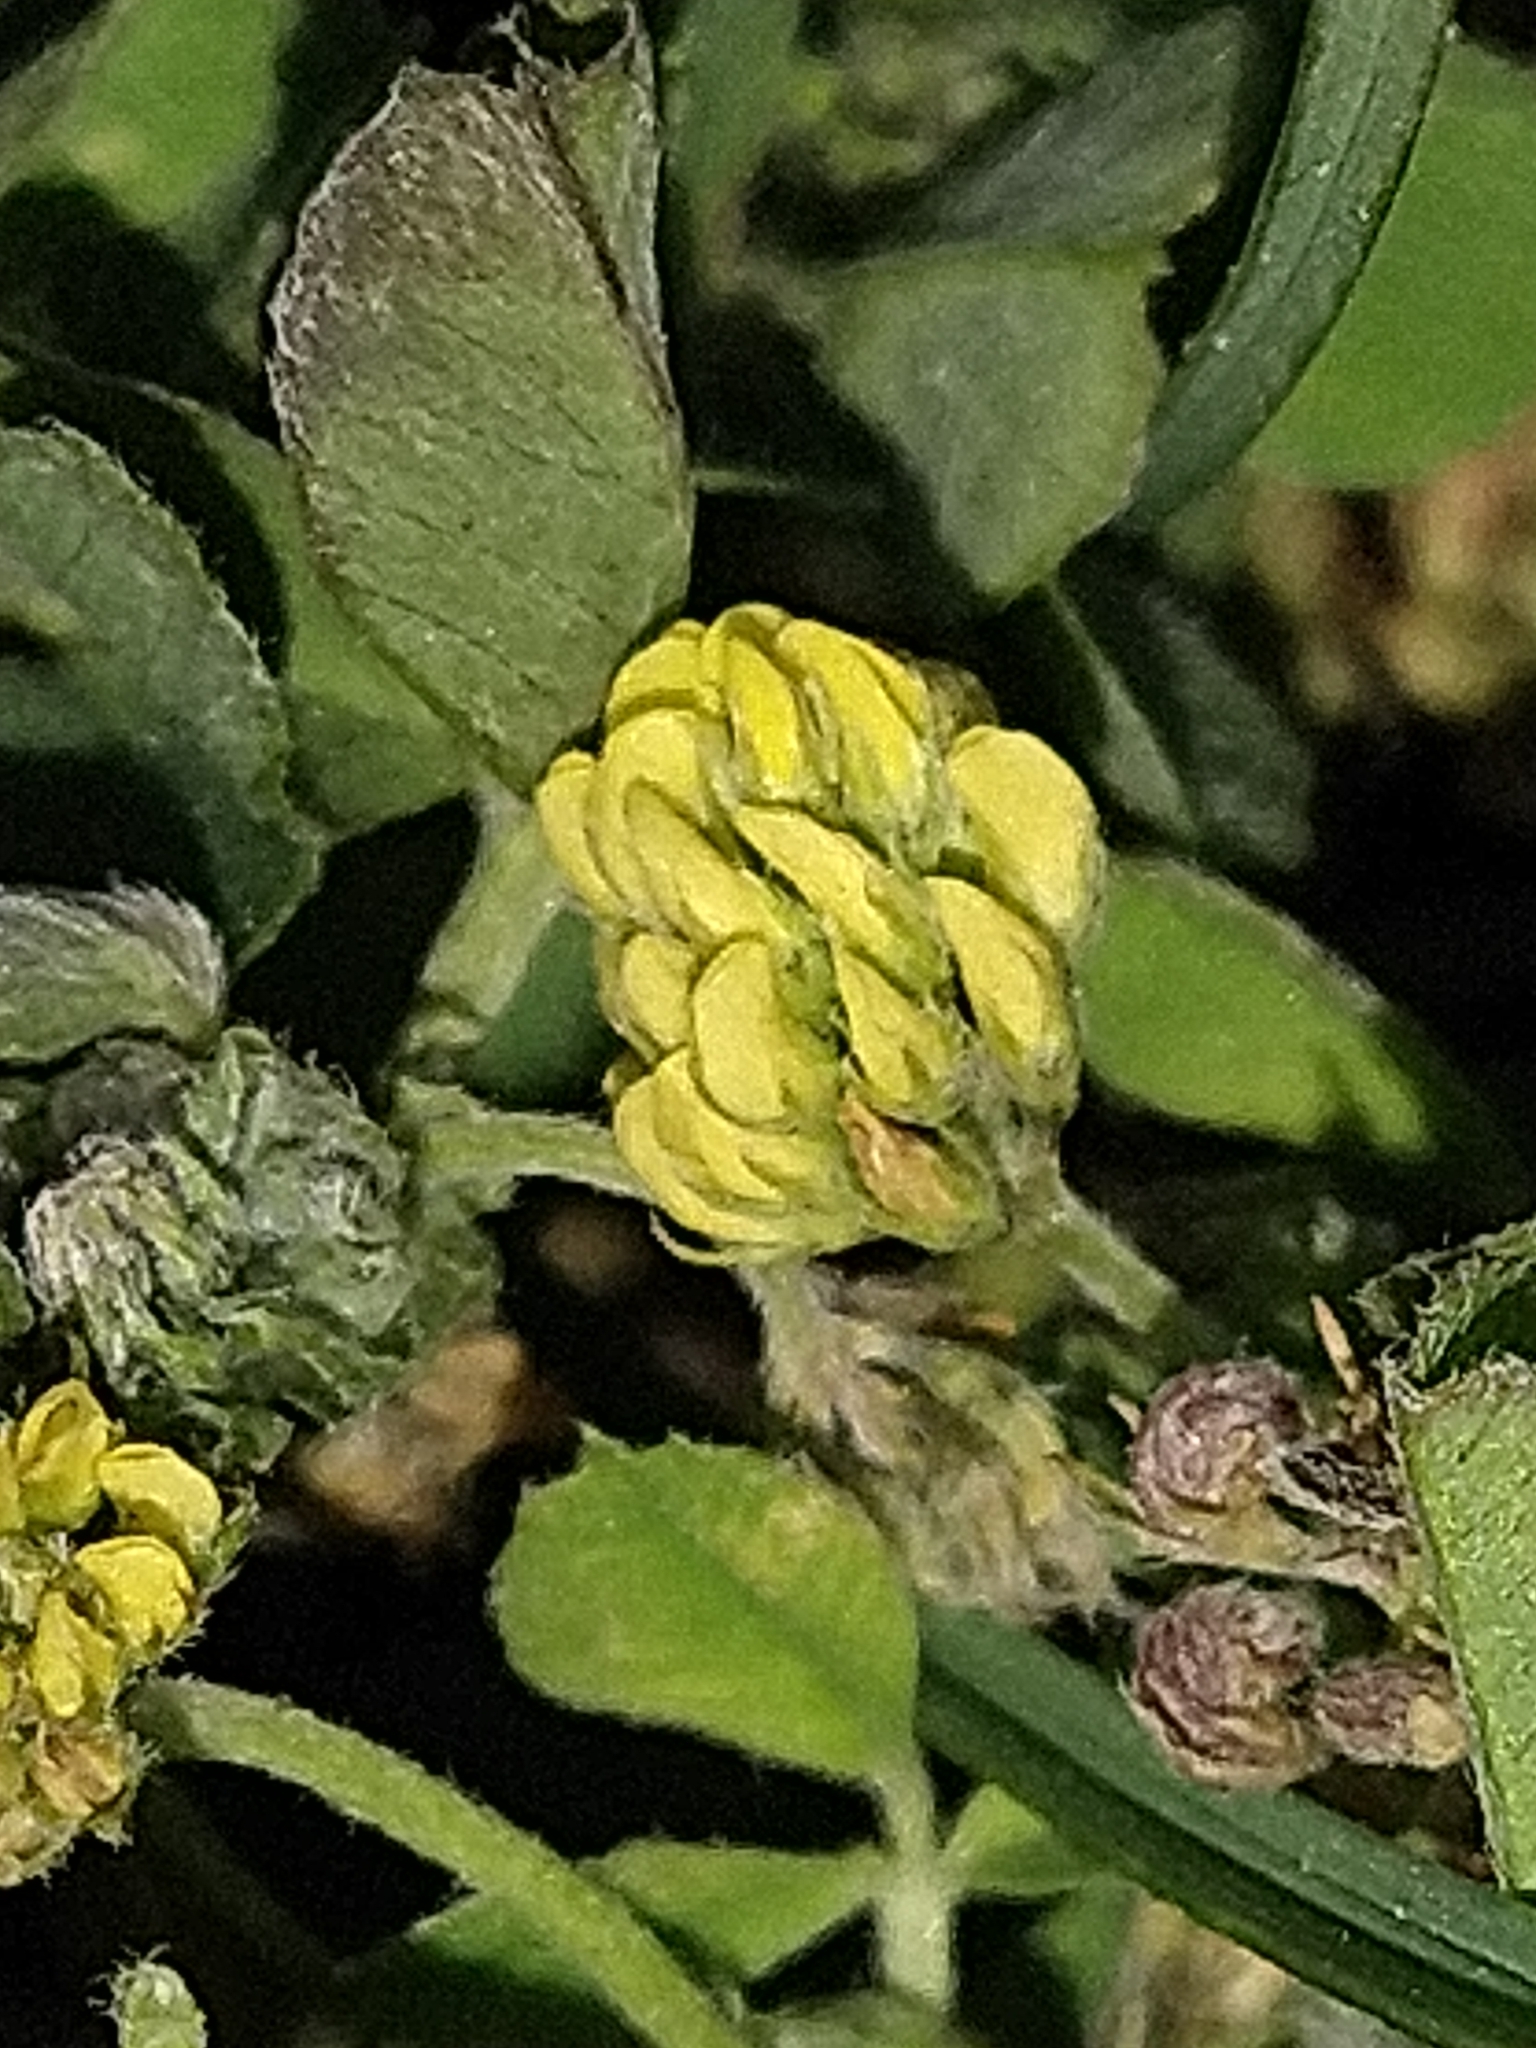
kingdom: Plantae
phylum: Tracheophyta
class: Magnoliopsida
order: Fabales
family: Fabaceae
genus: Medicago
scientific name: Medicago lupulina
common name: Black medick
